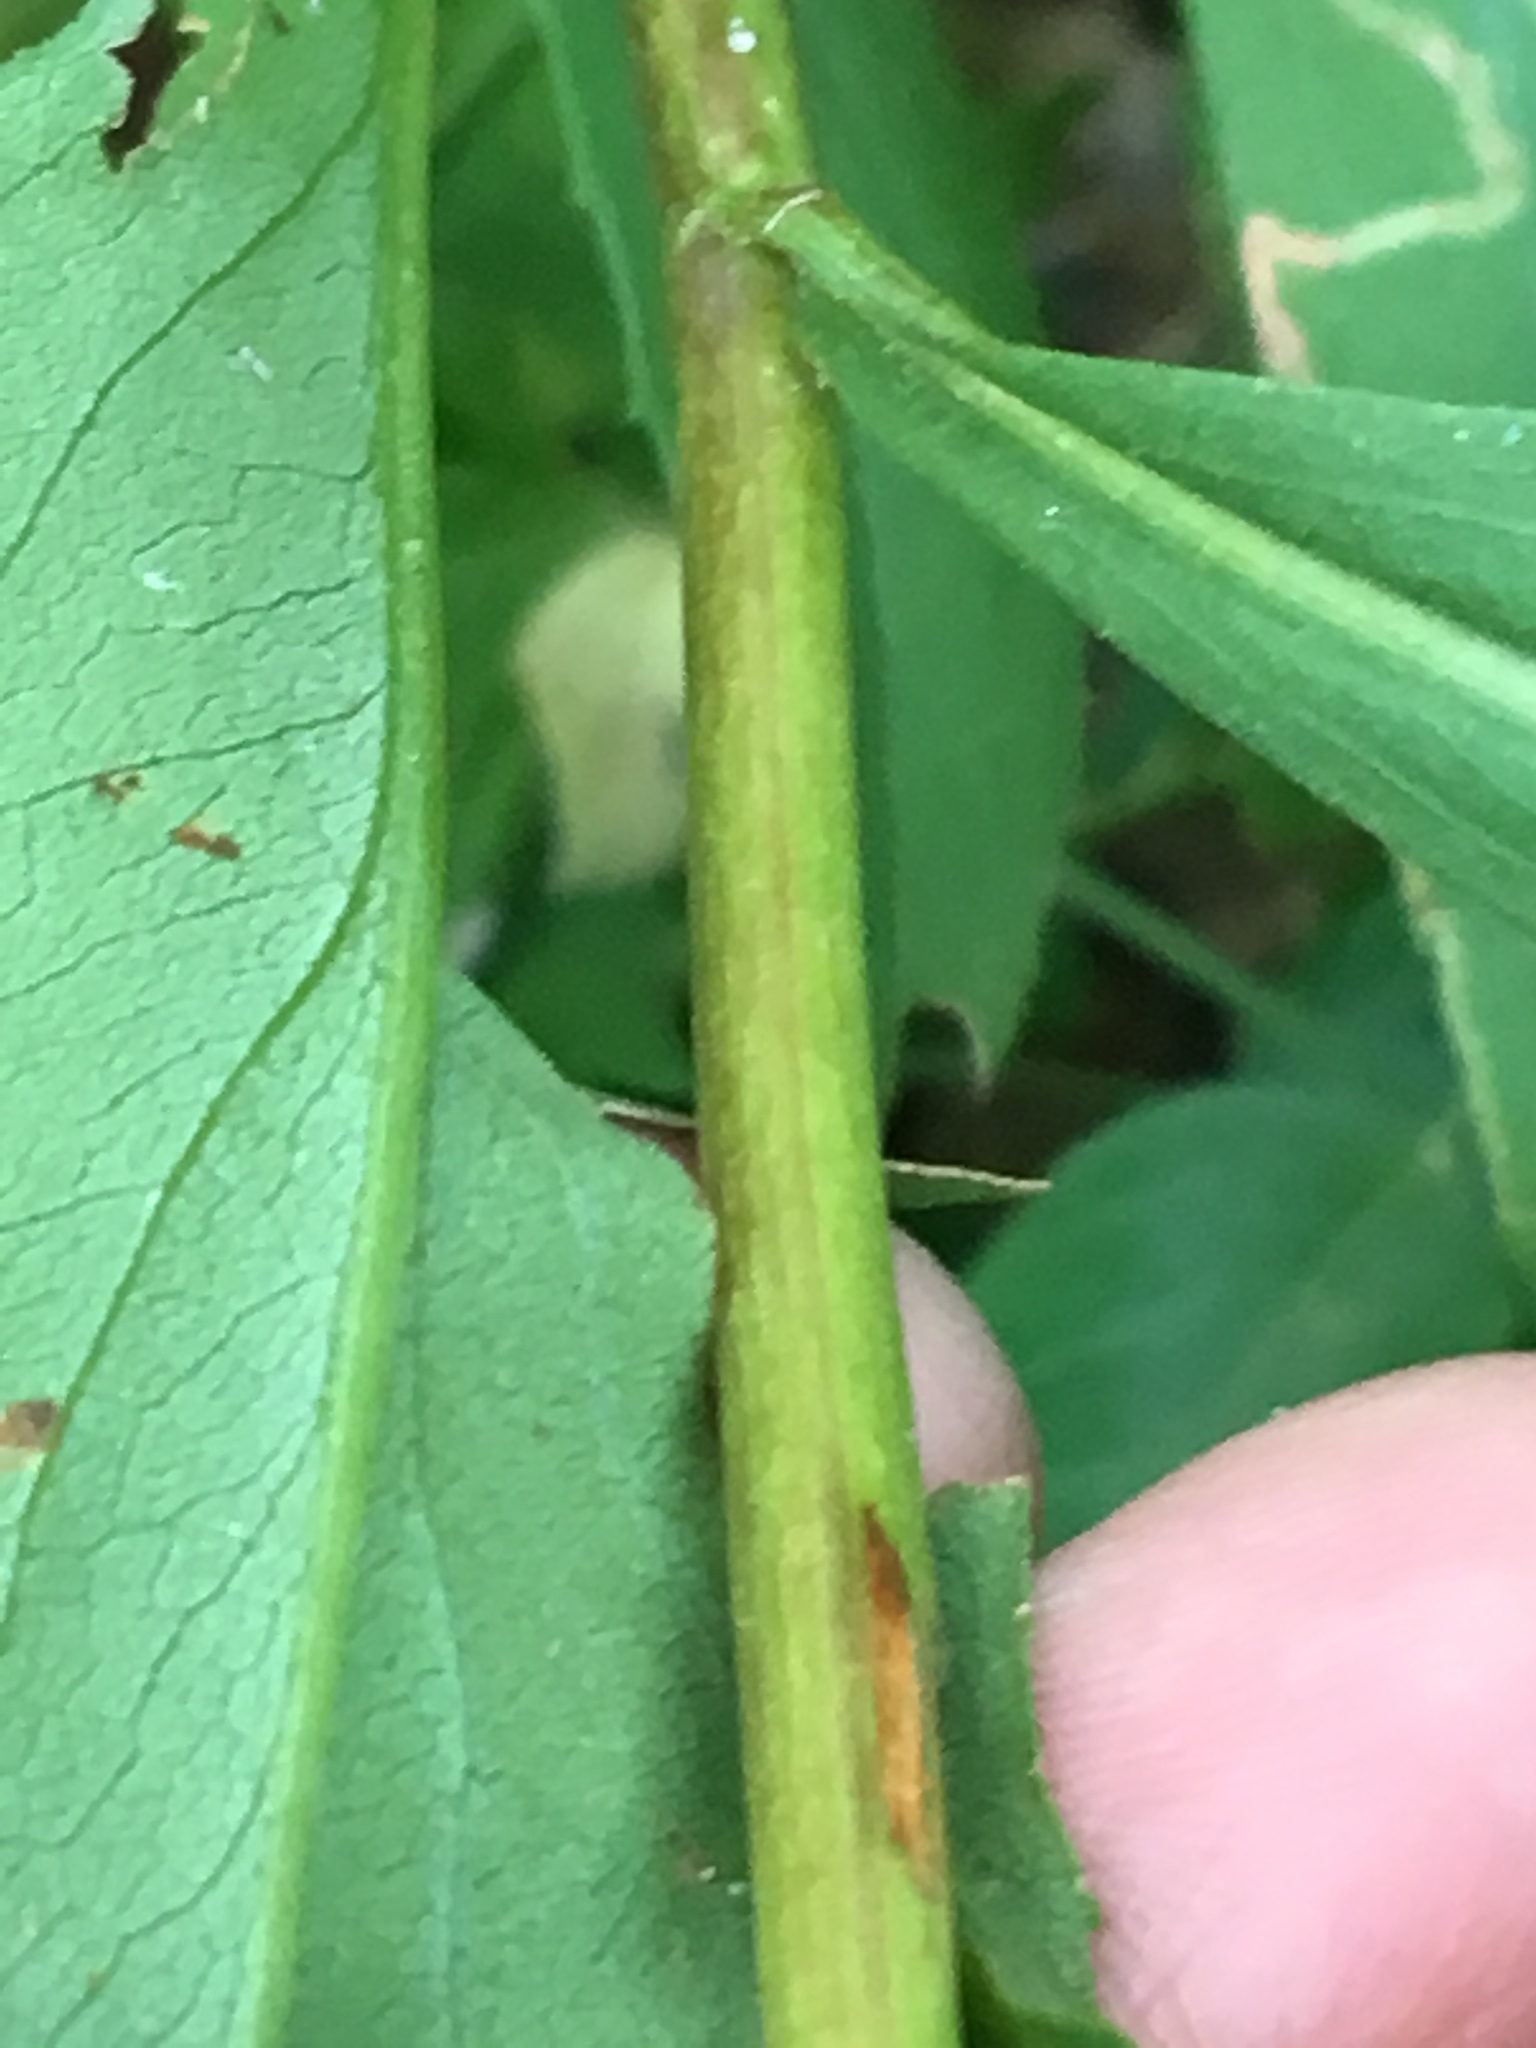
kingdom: Plantae
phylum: Tracheophyta
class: Magnoliopsida
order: Asterales
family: Asteraceae
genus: Solidago
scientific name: Solidago juncea
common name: Early goldenrod
